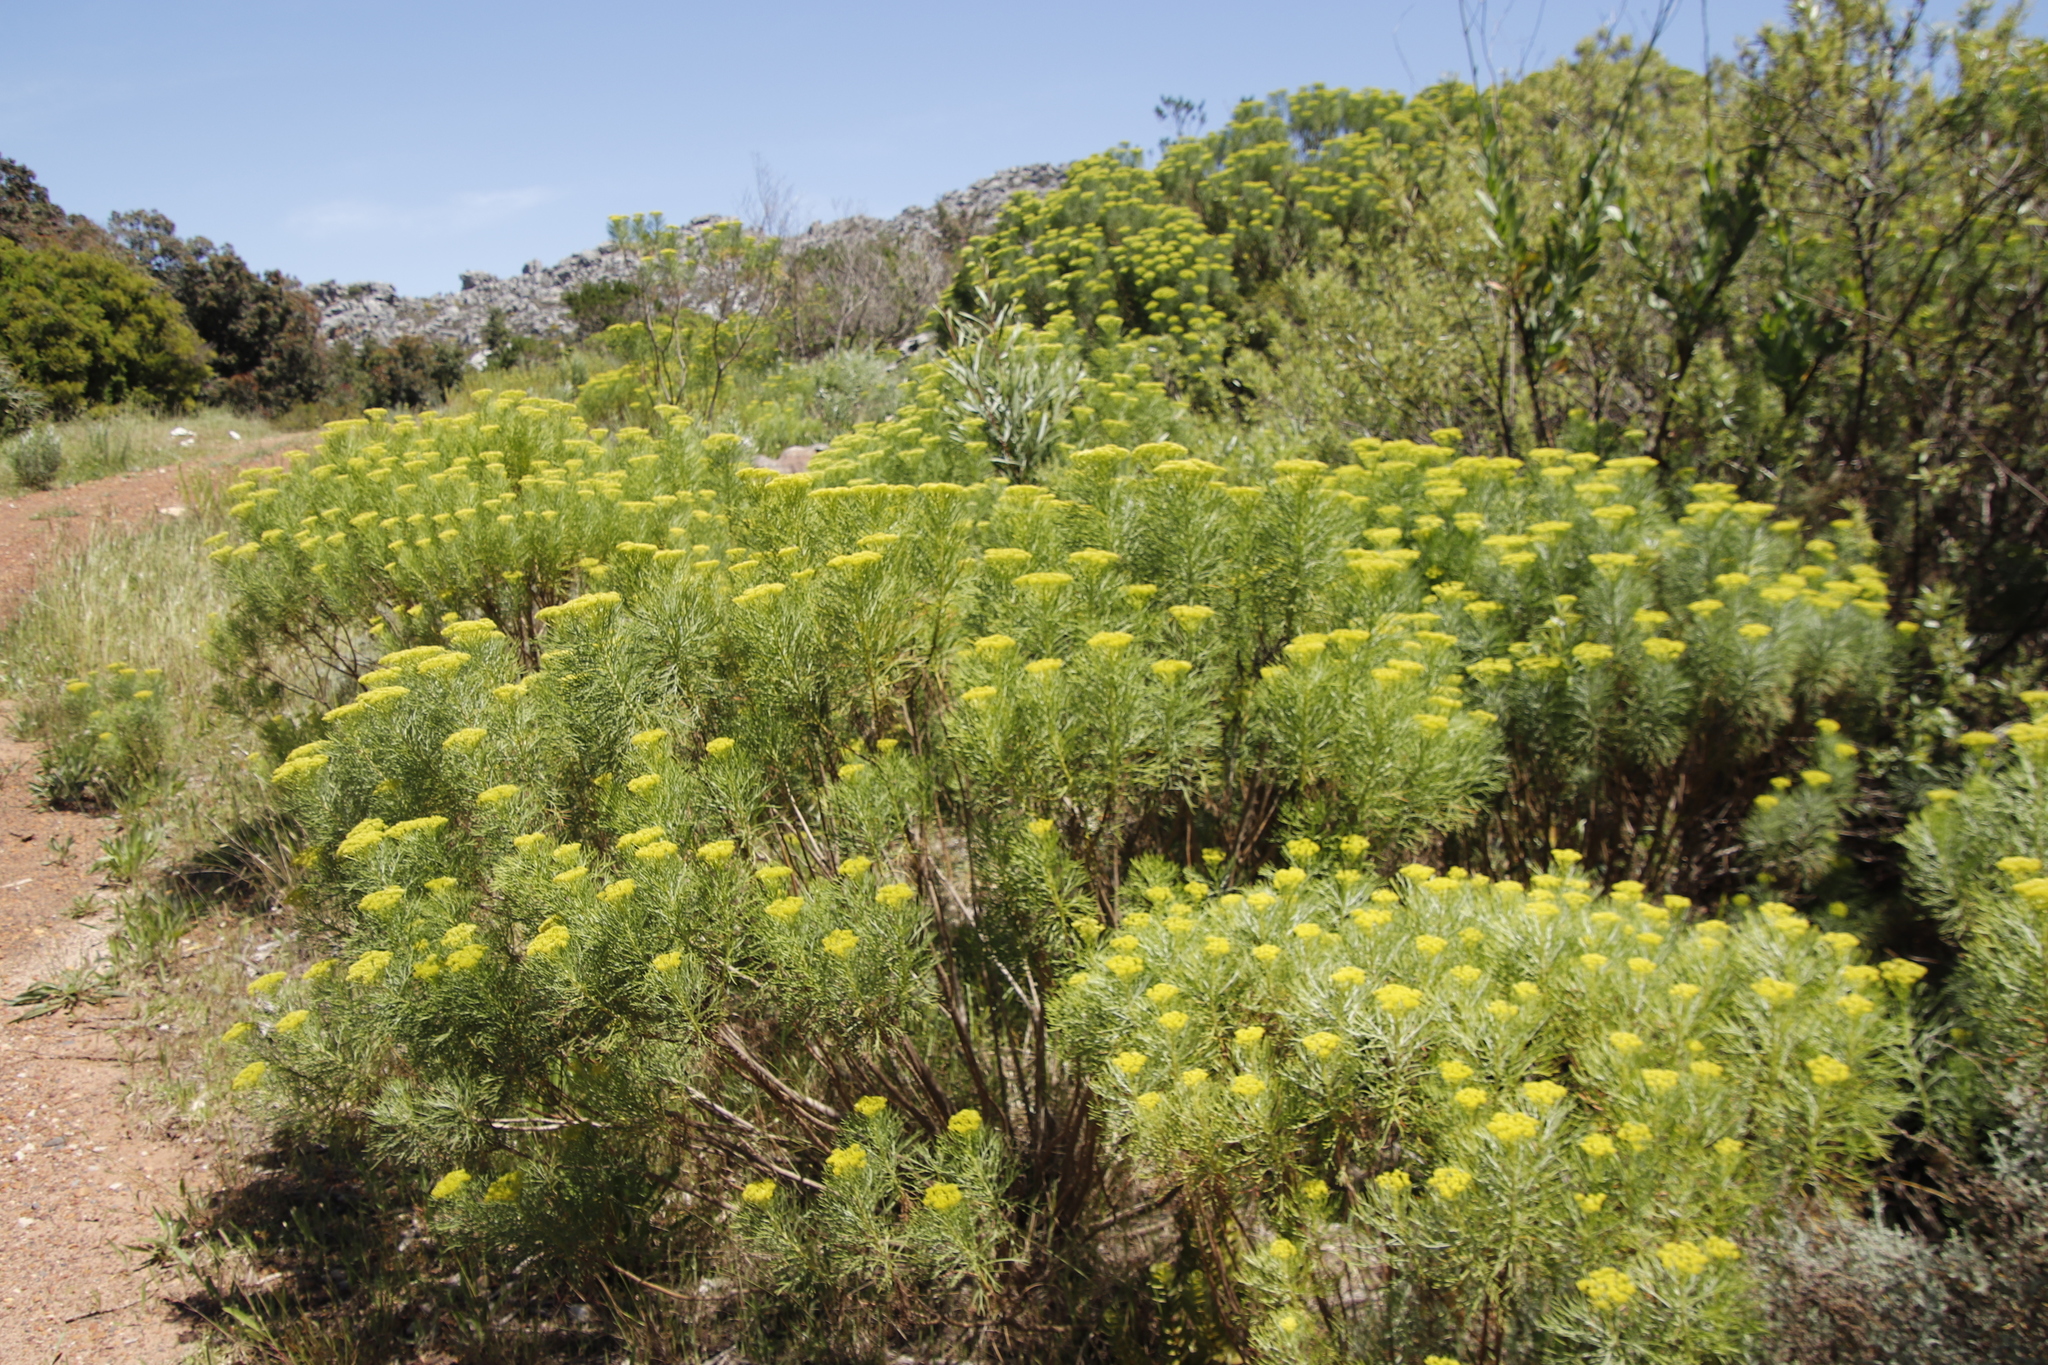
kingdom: Plantae
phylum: Tracheophyta
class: Magnoliopsida
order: Asterales
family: Asteraceae
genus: Hymenolepis
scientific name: Hymenolepis crithmifolia
